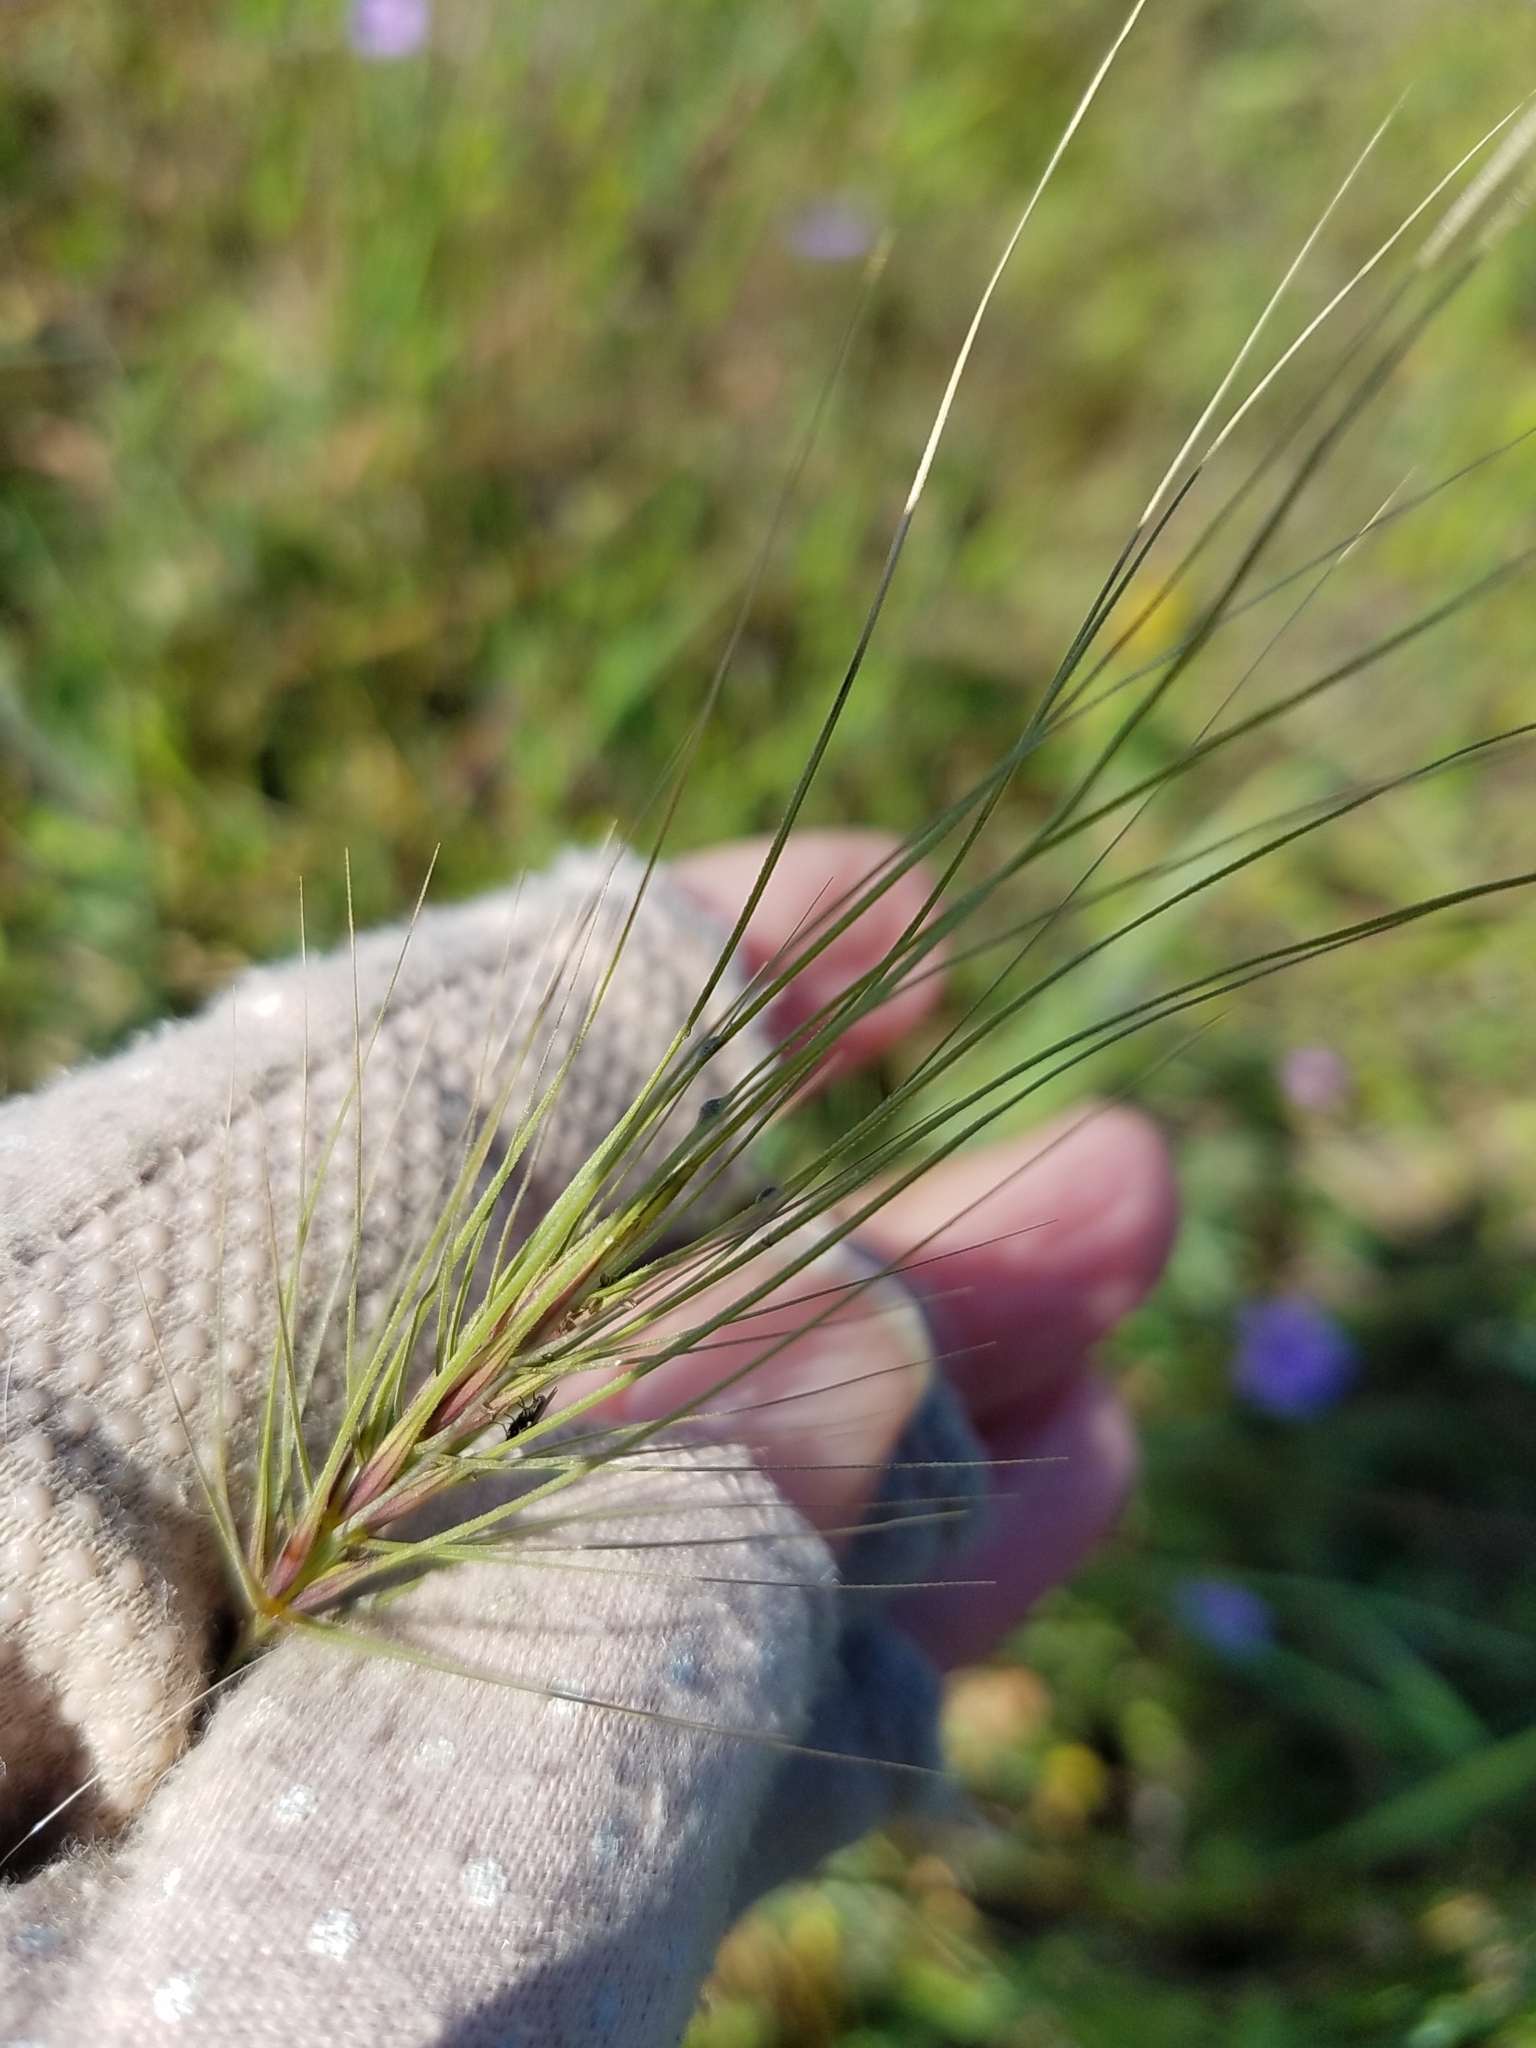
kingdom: Plantae
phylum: Tracheophyta
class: Liliopsida
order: Poales
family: Poaceae
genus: Taeniatherum
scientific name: Taeniatherum caput-medusae
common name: Medusahead
